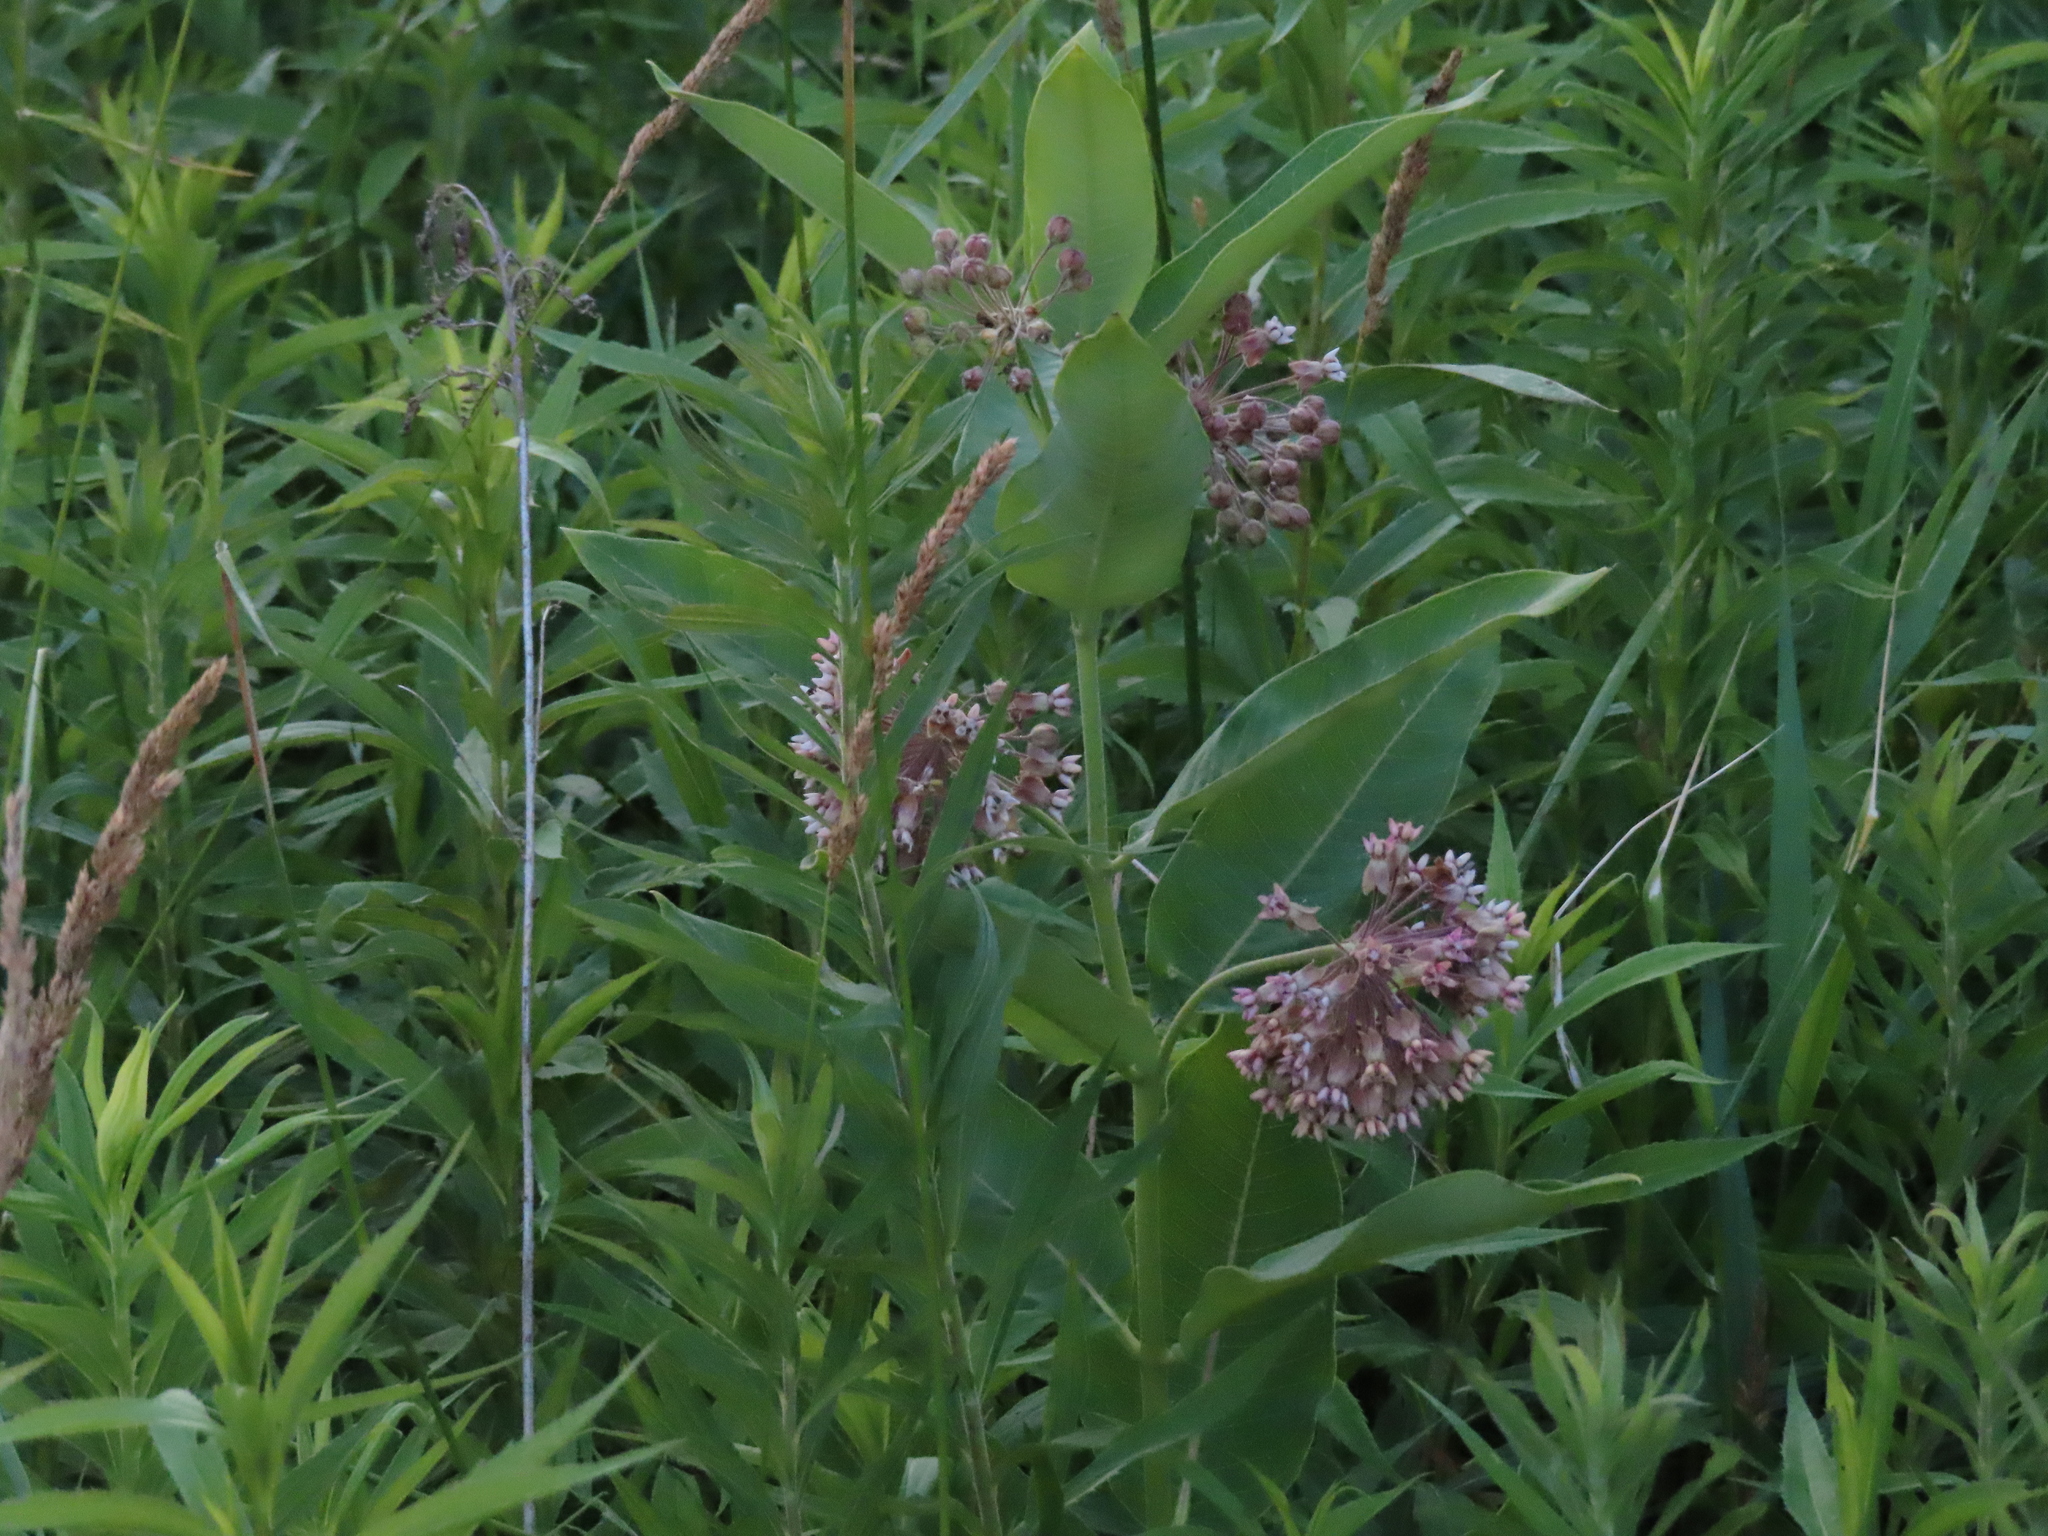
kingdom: Plantae
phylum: Tracheophyta
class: Magnoliopsida
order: Gentianales
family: Apocynaceae
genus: Asclepias
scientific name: Asclepias syriaca
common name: Common milkweed
